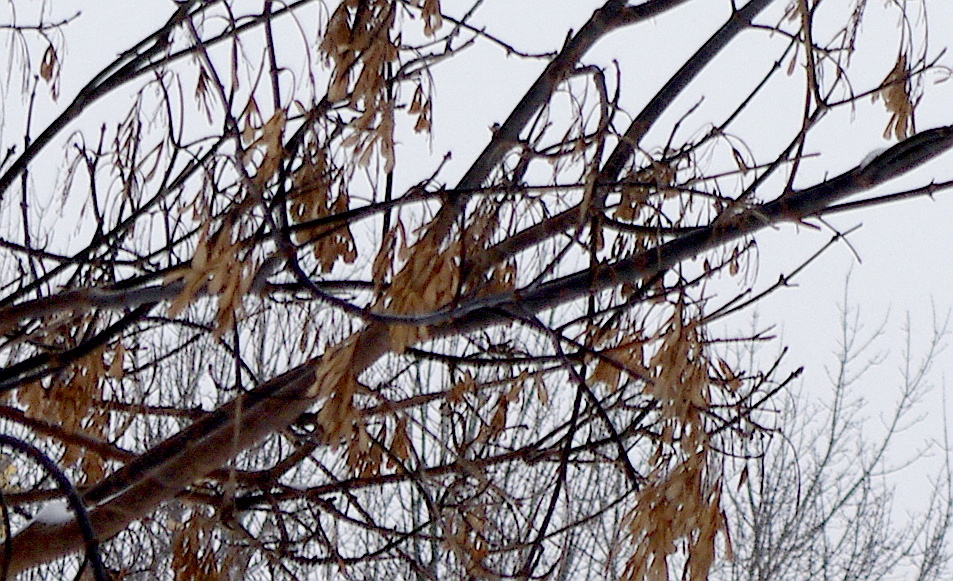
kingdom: Plantae
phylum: Tracheophyta
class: Magnoliopsida
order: Sapindales
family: Sapindaceae
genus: Acer
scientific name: Acer negundo
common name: Ashleaf maple
